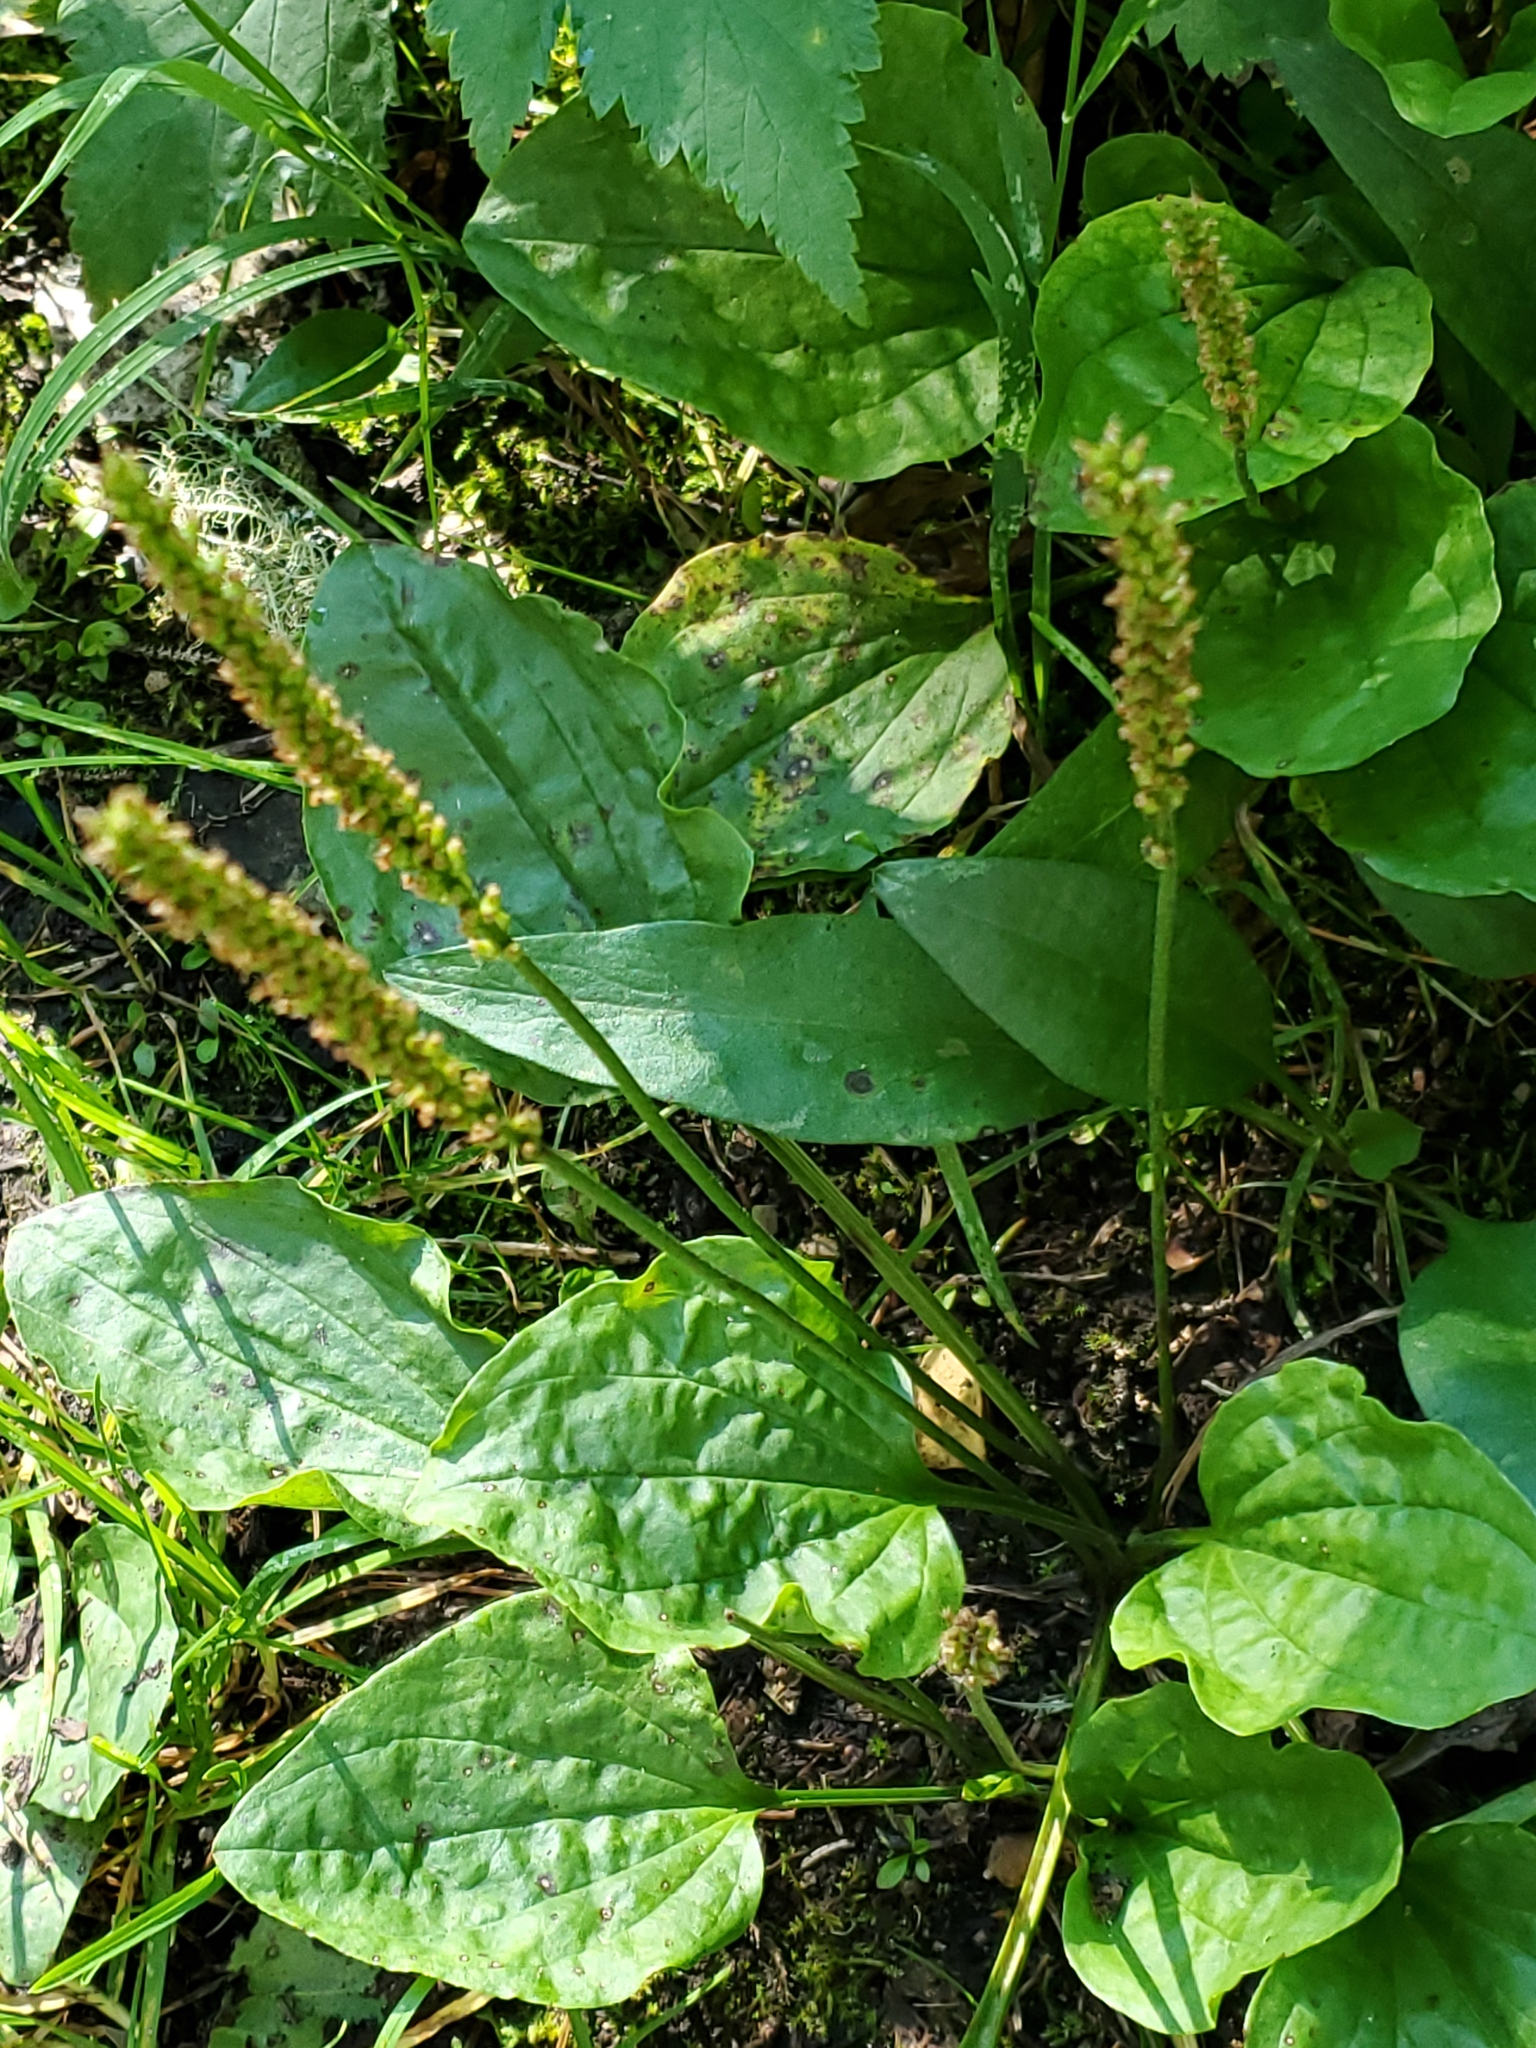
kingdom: Plantae
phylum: Tracheophyta
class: Magnoliopsida
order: Lamiales
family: Plantaginaceae
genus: Plantago
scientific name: Plantago major
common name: Common plantain
